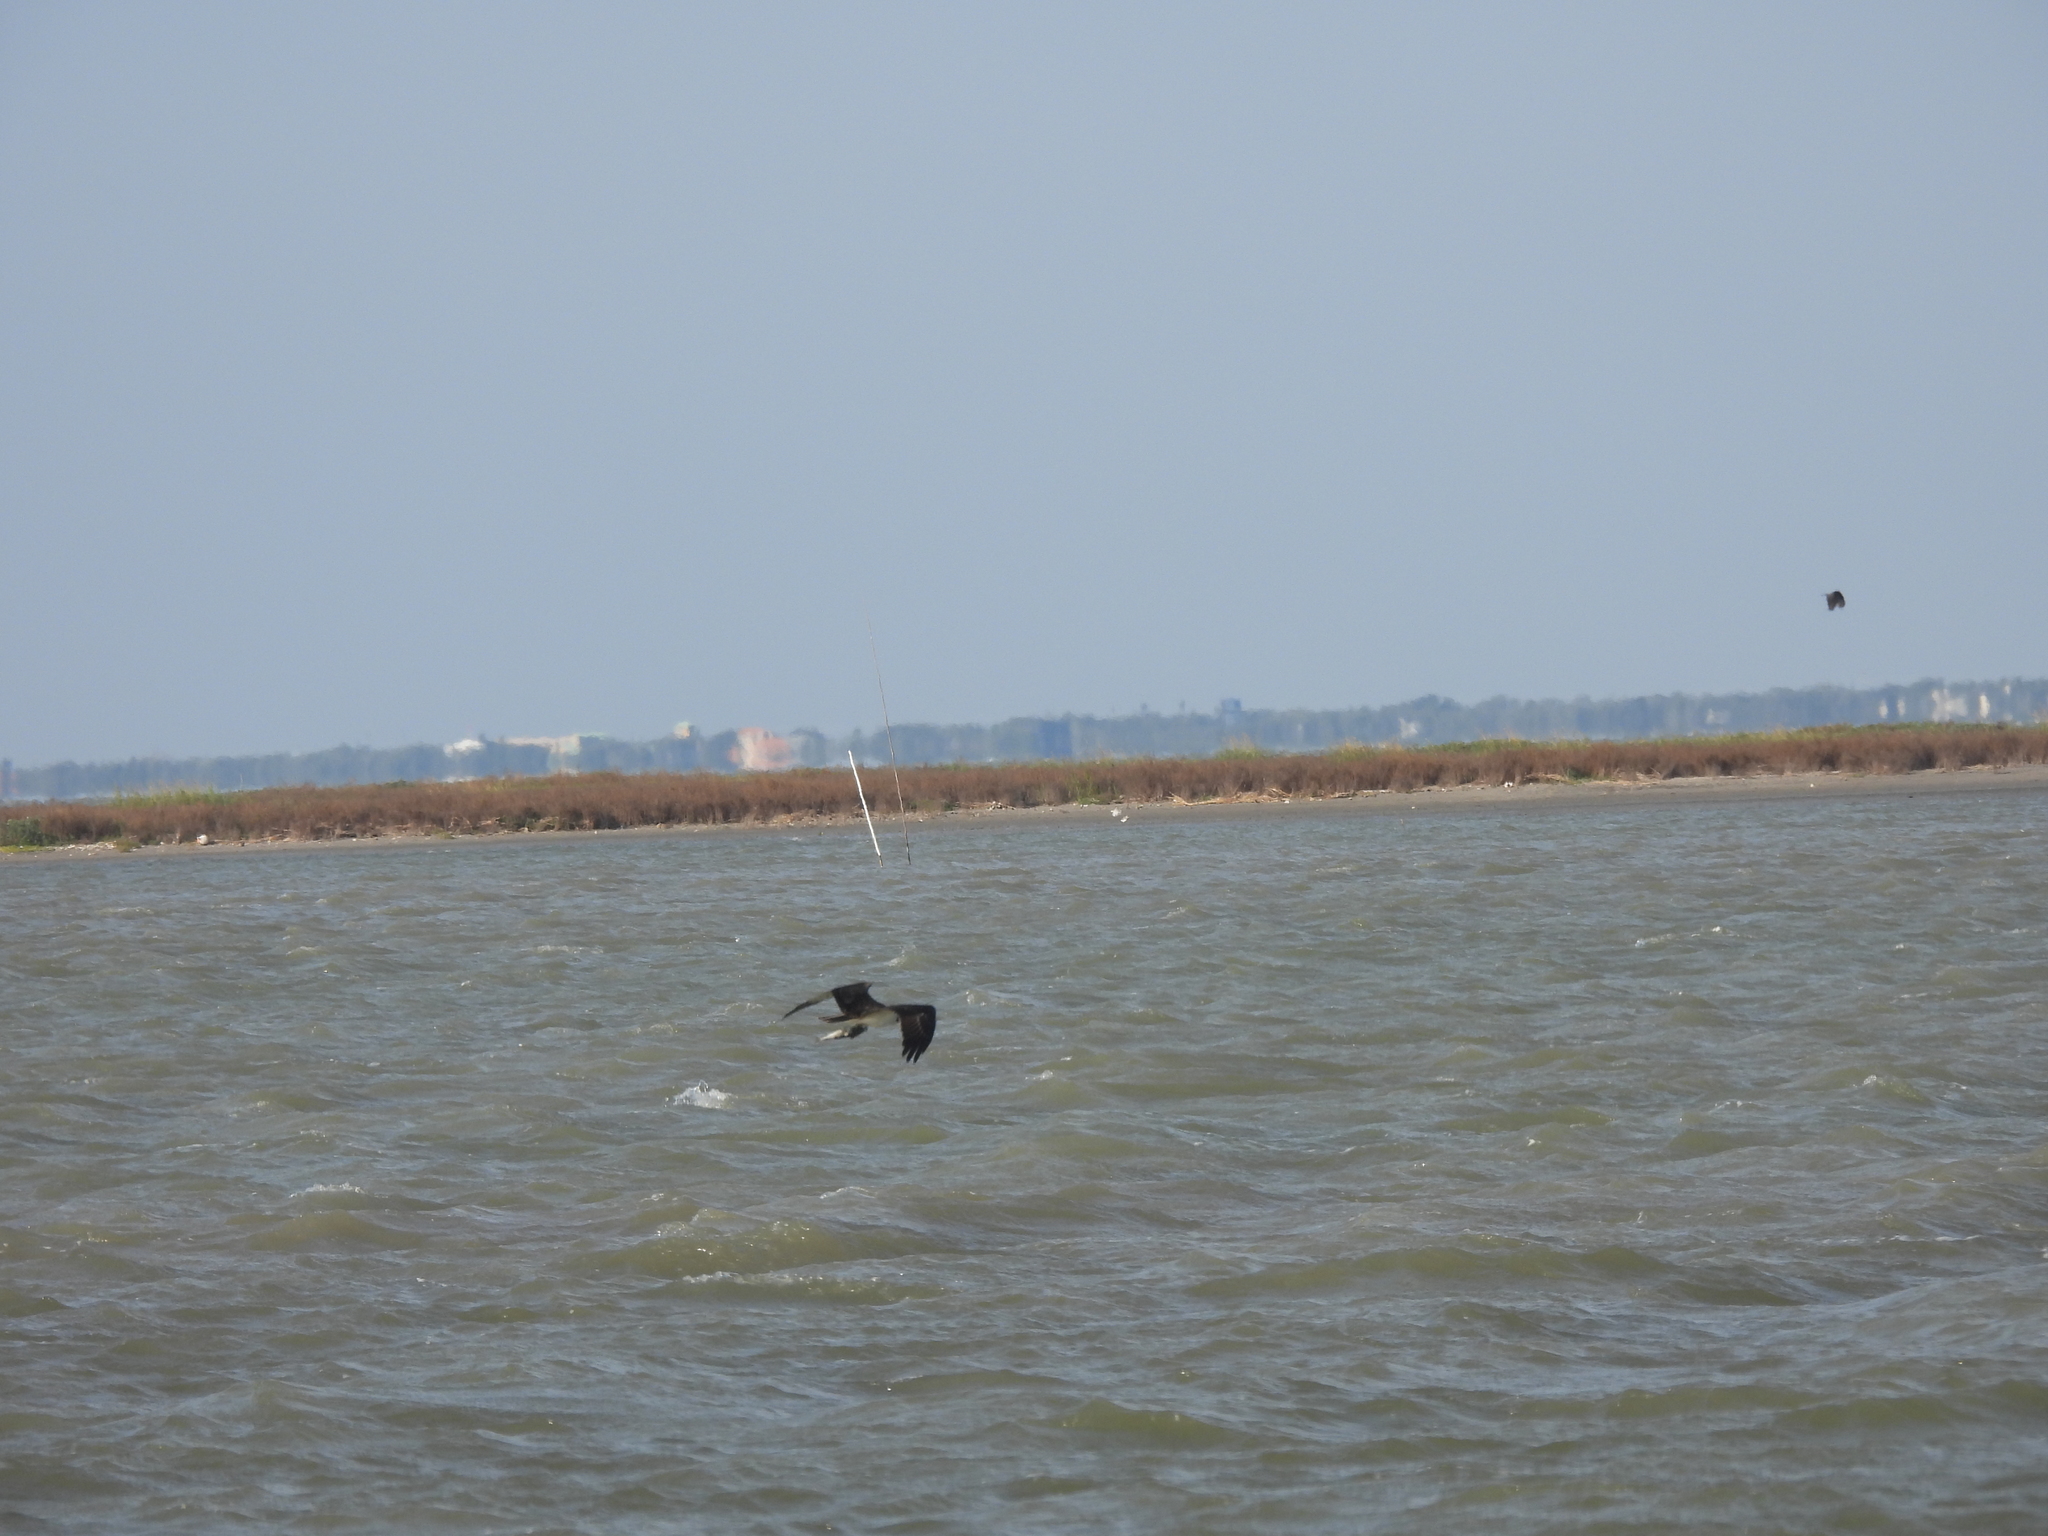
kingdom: Animalia
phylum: Chordata
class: Aves
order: Accipitriformes
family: Pandionidae
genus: Pandion
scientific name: Pandion haliaetus
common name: Osprey
